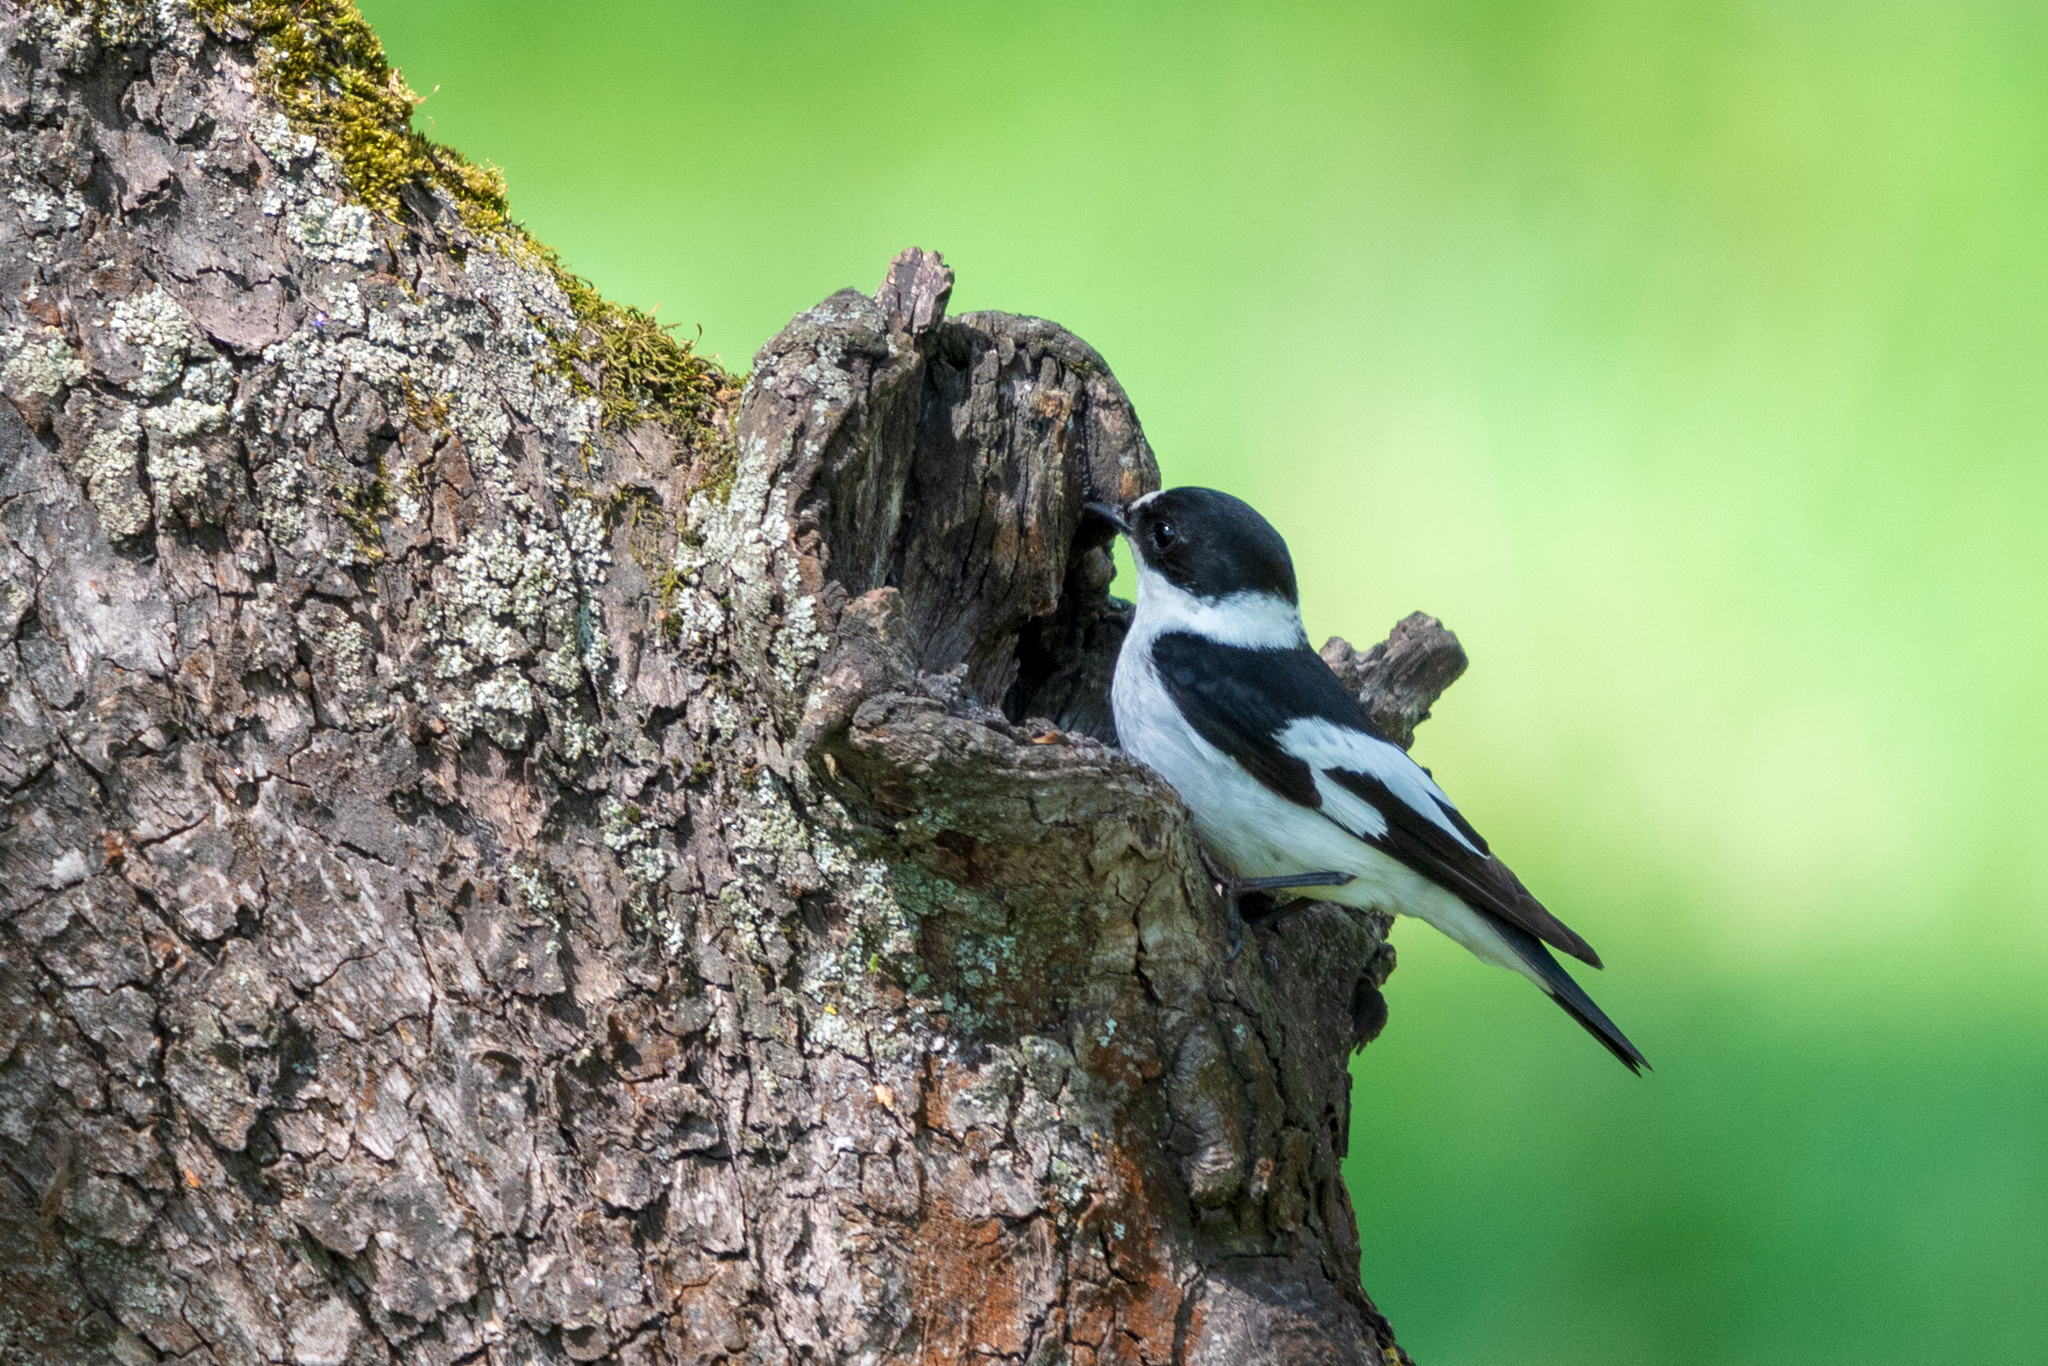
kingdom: Animalia
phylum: Chordata
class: Aves
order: Passeriformes
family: Muscicapidae
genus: Ficedula
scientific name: Ficedula albicollis
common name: Collared flycatcher
